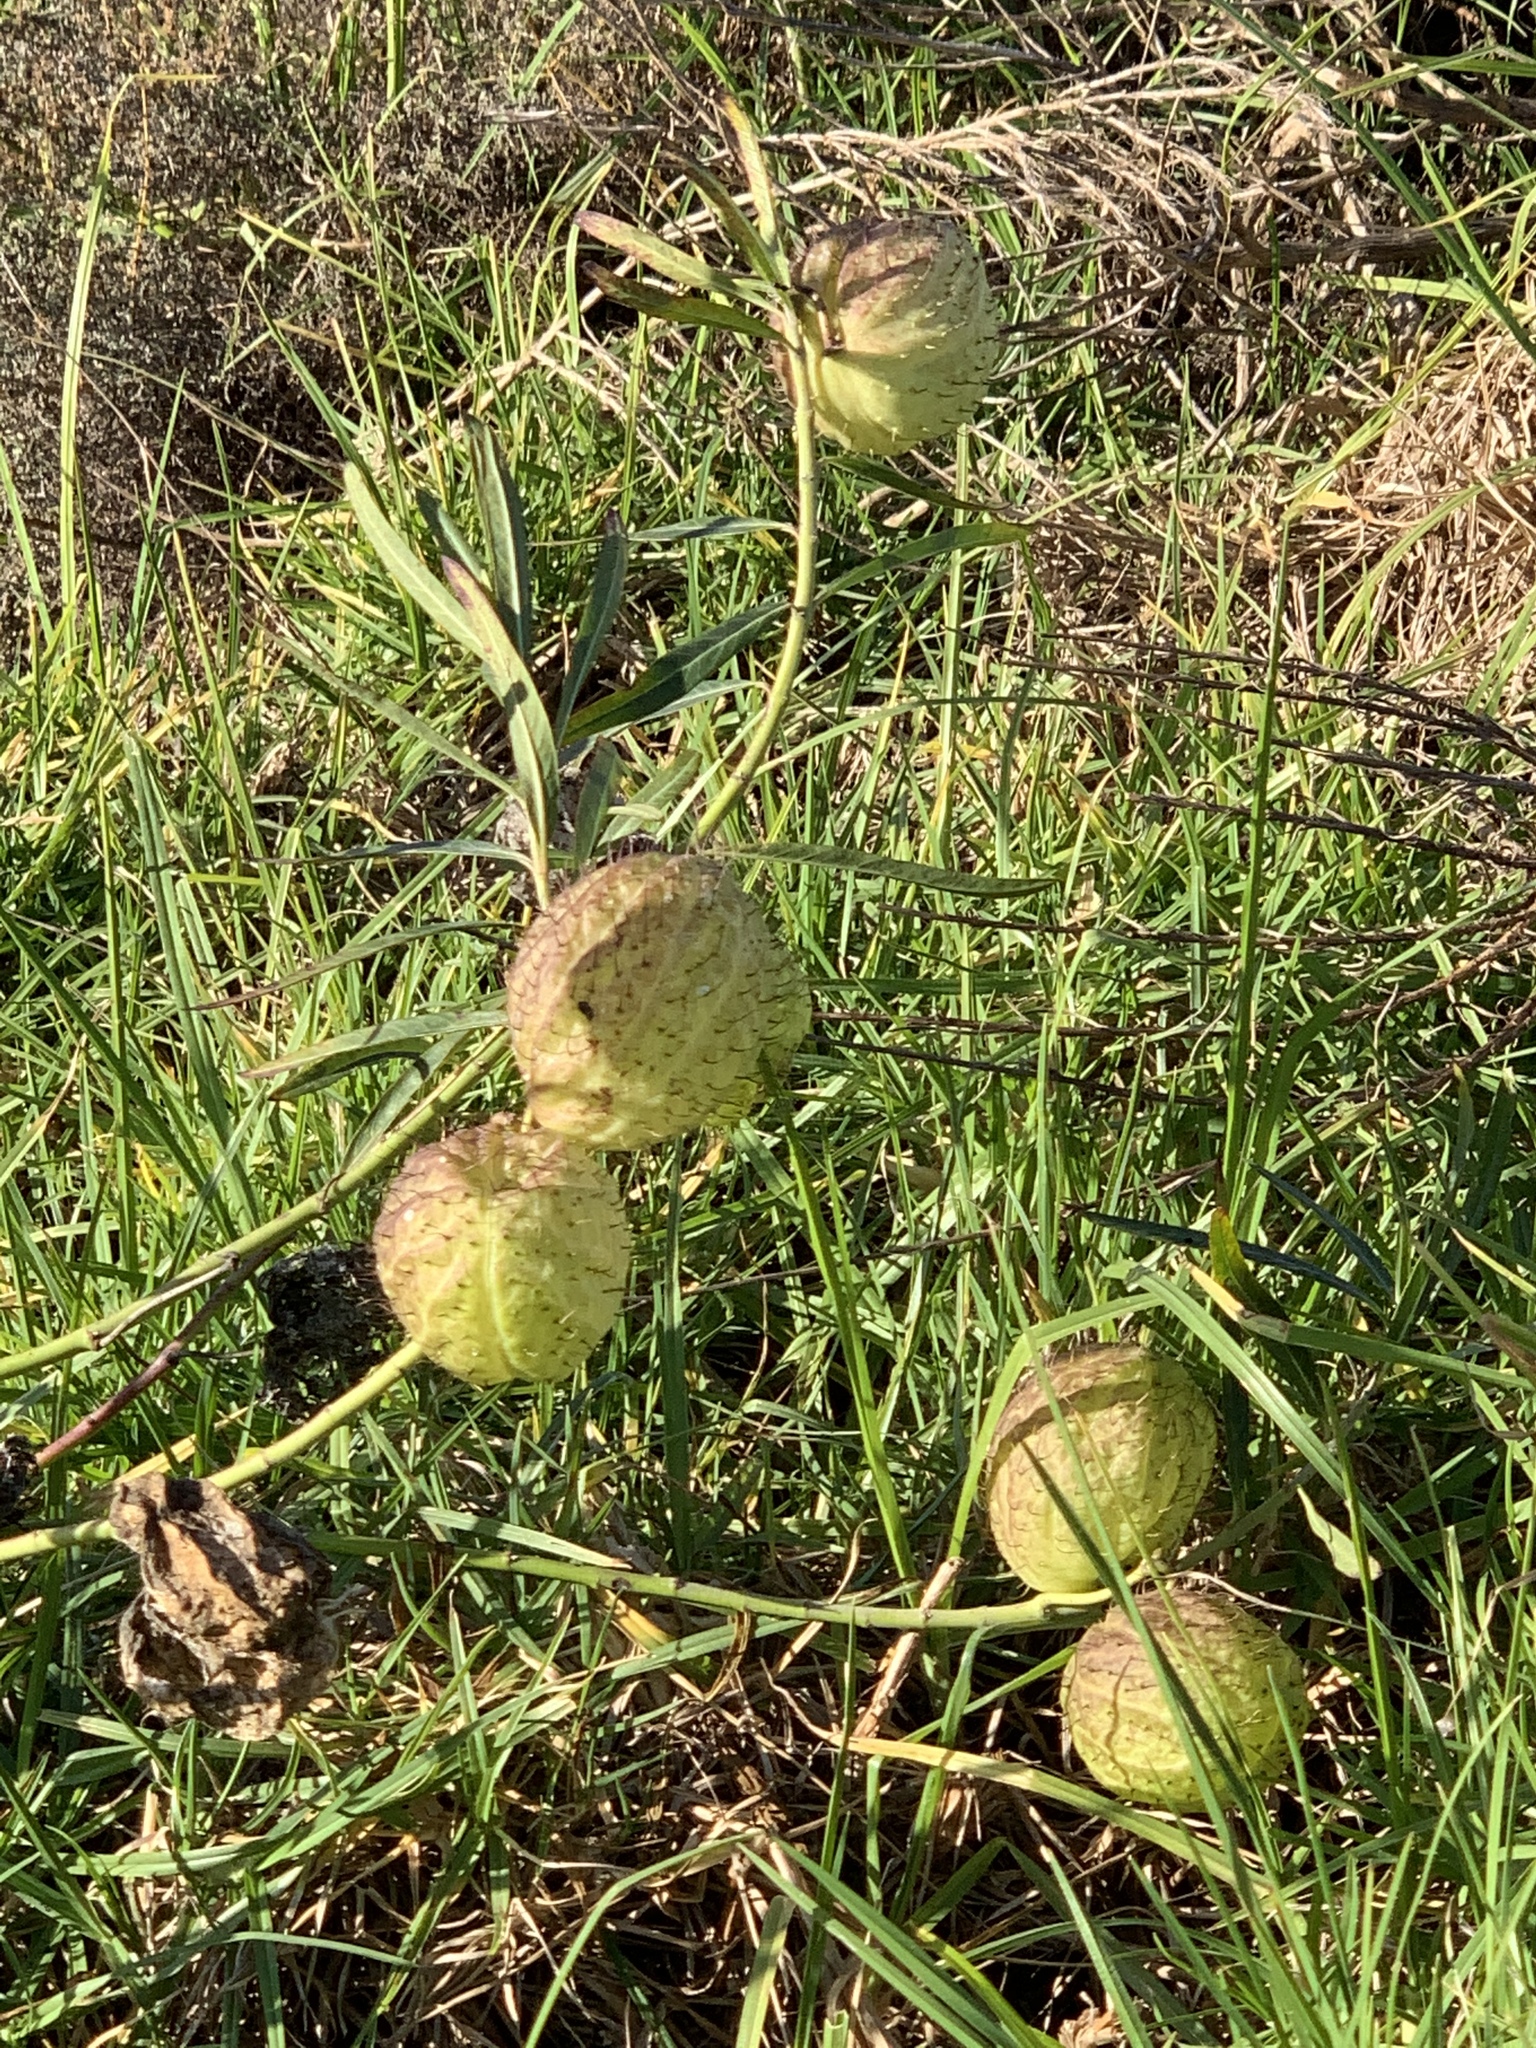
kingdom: Plantae
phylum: Tracheophyta
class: Magnoliopsida
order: Gentianales
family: Apocynaceae
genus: Gomphocarpus
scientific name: Gomphocarpus physocarpus
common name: Balloon cotton bush
